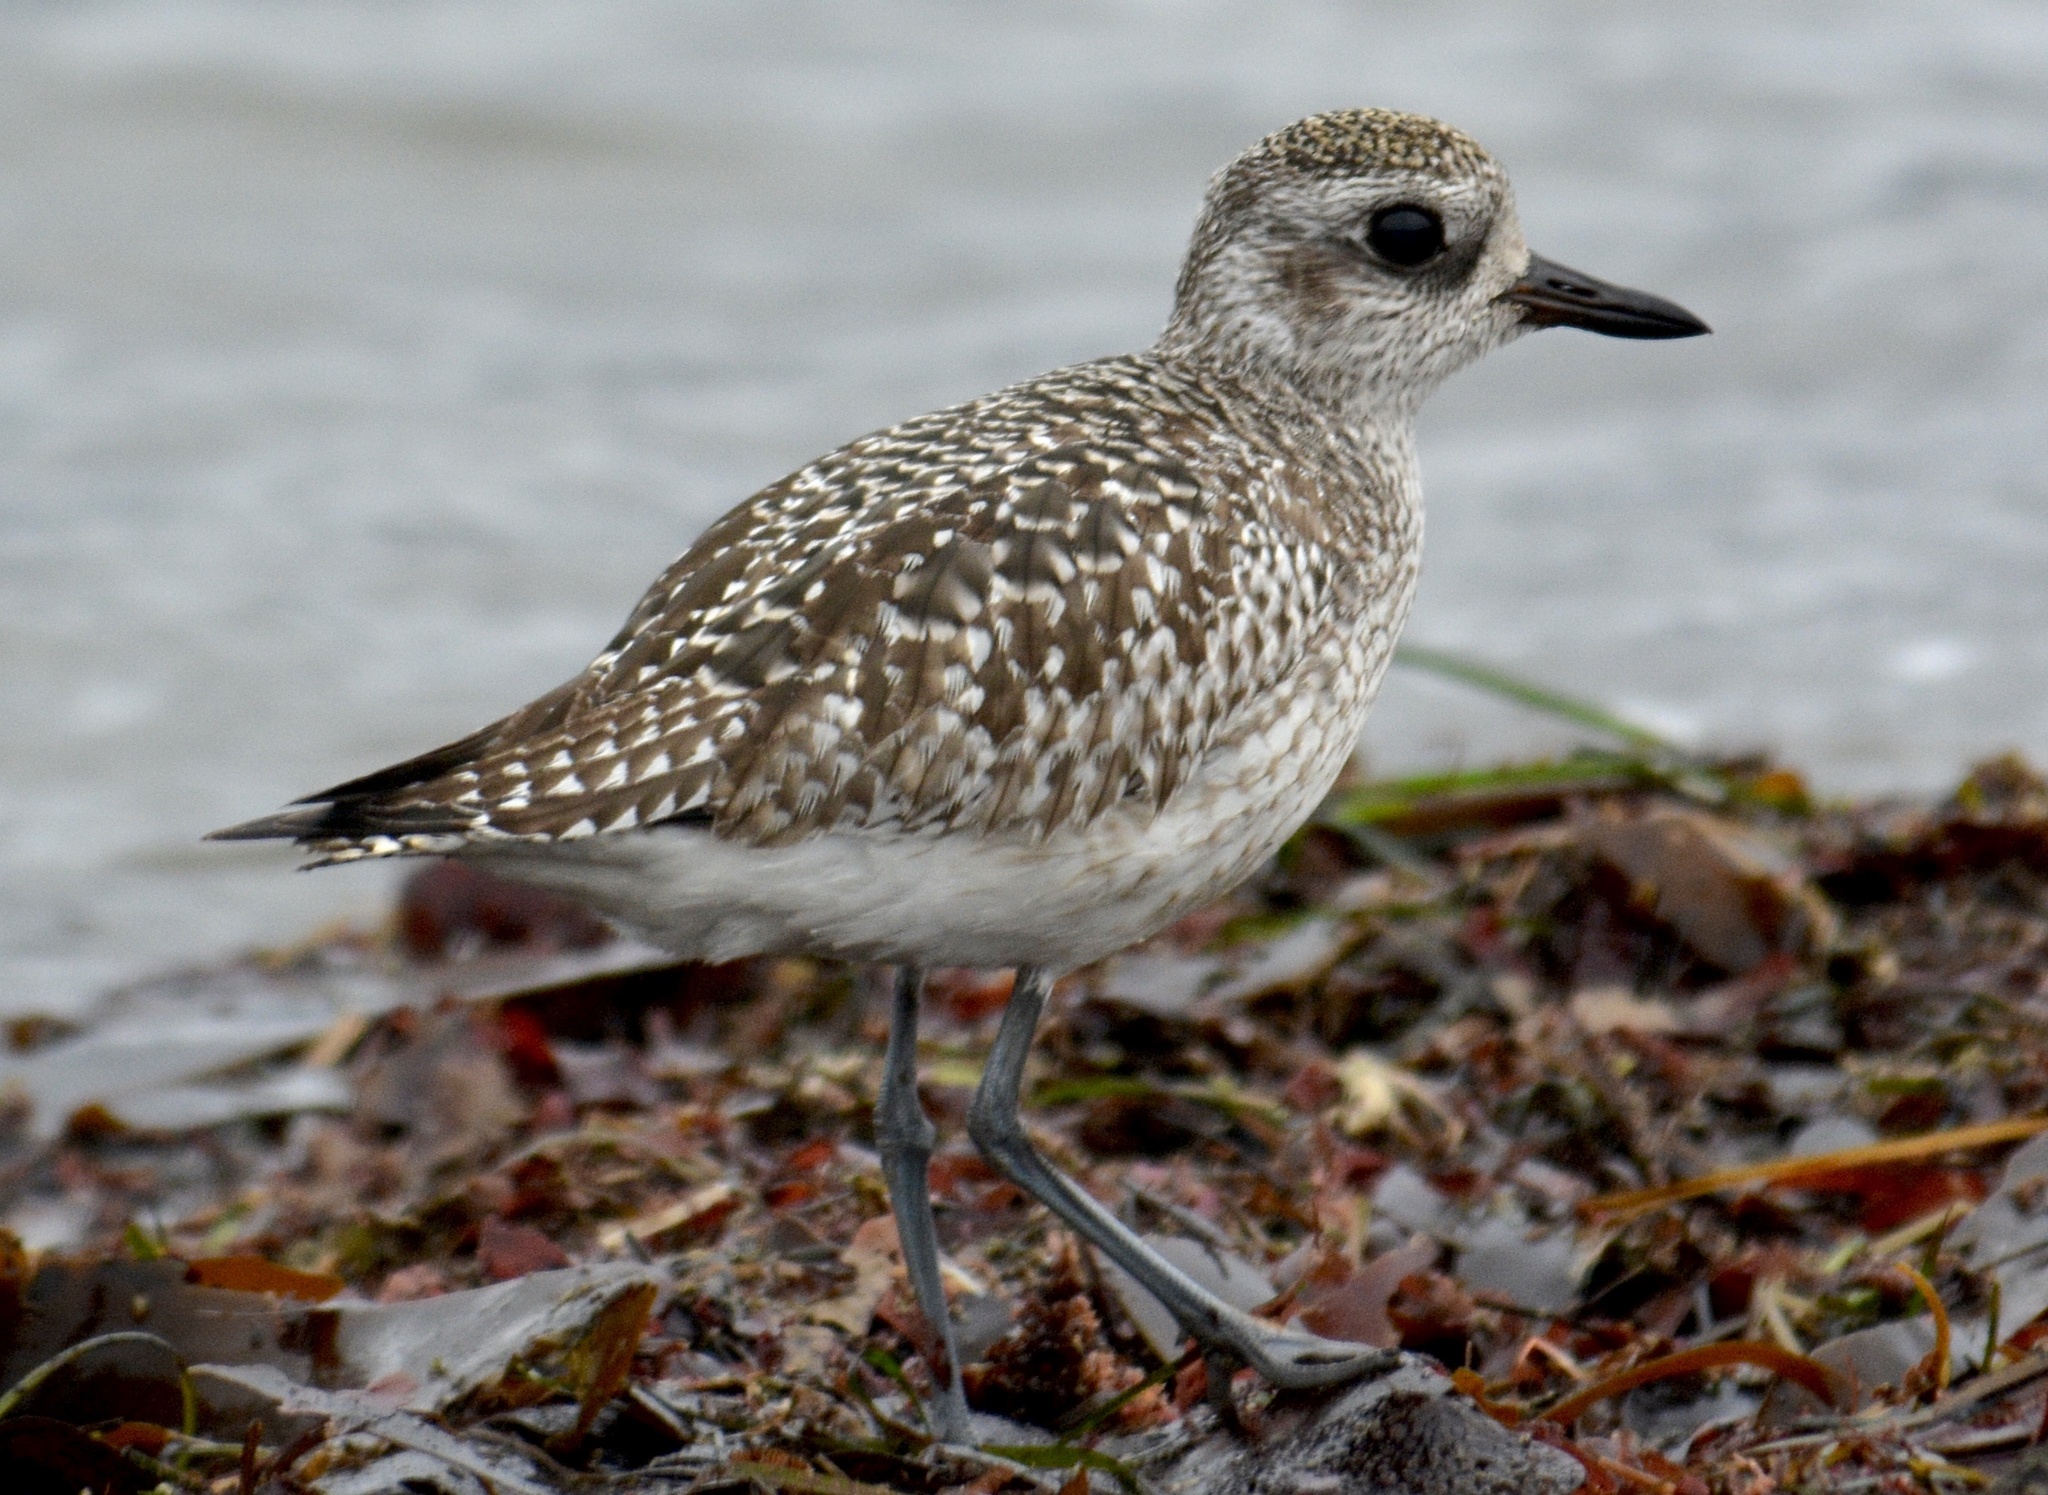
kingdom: Animalia
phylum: Chordata
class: Aves
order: Charadriiformes
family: Charadriidae
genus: Pluvialis
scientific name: Pluvialis squatarola
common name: Grey plover
